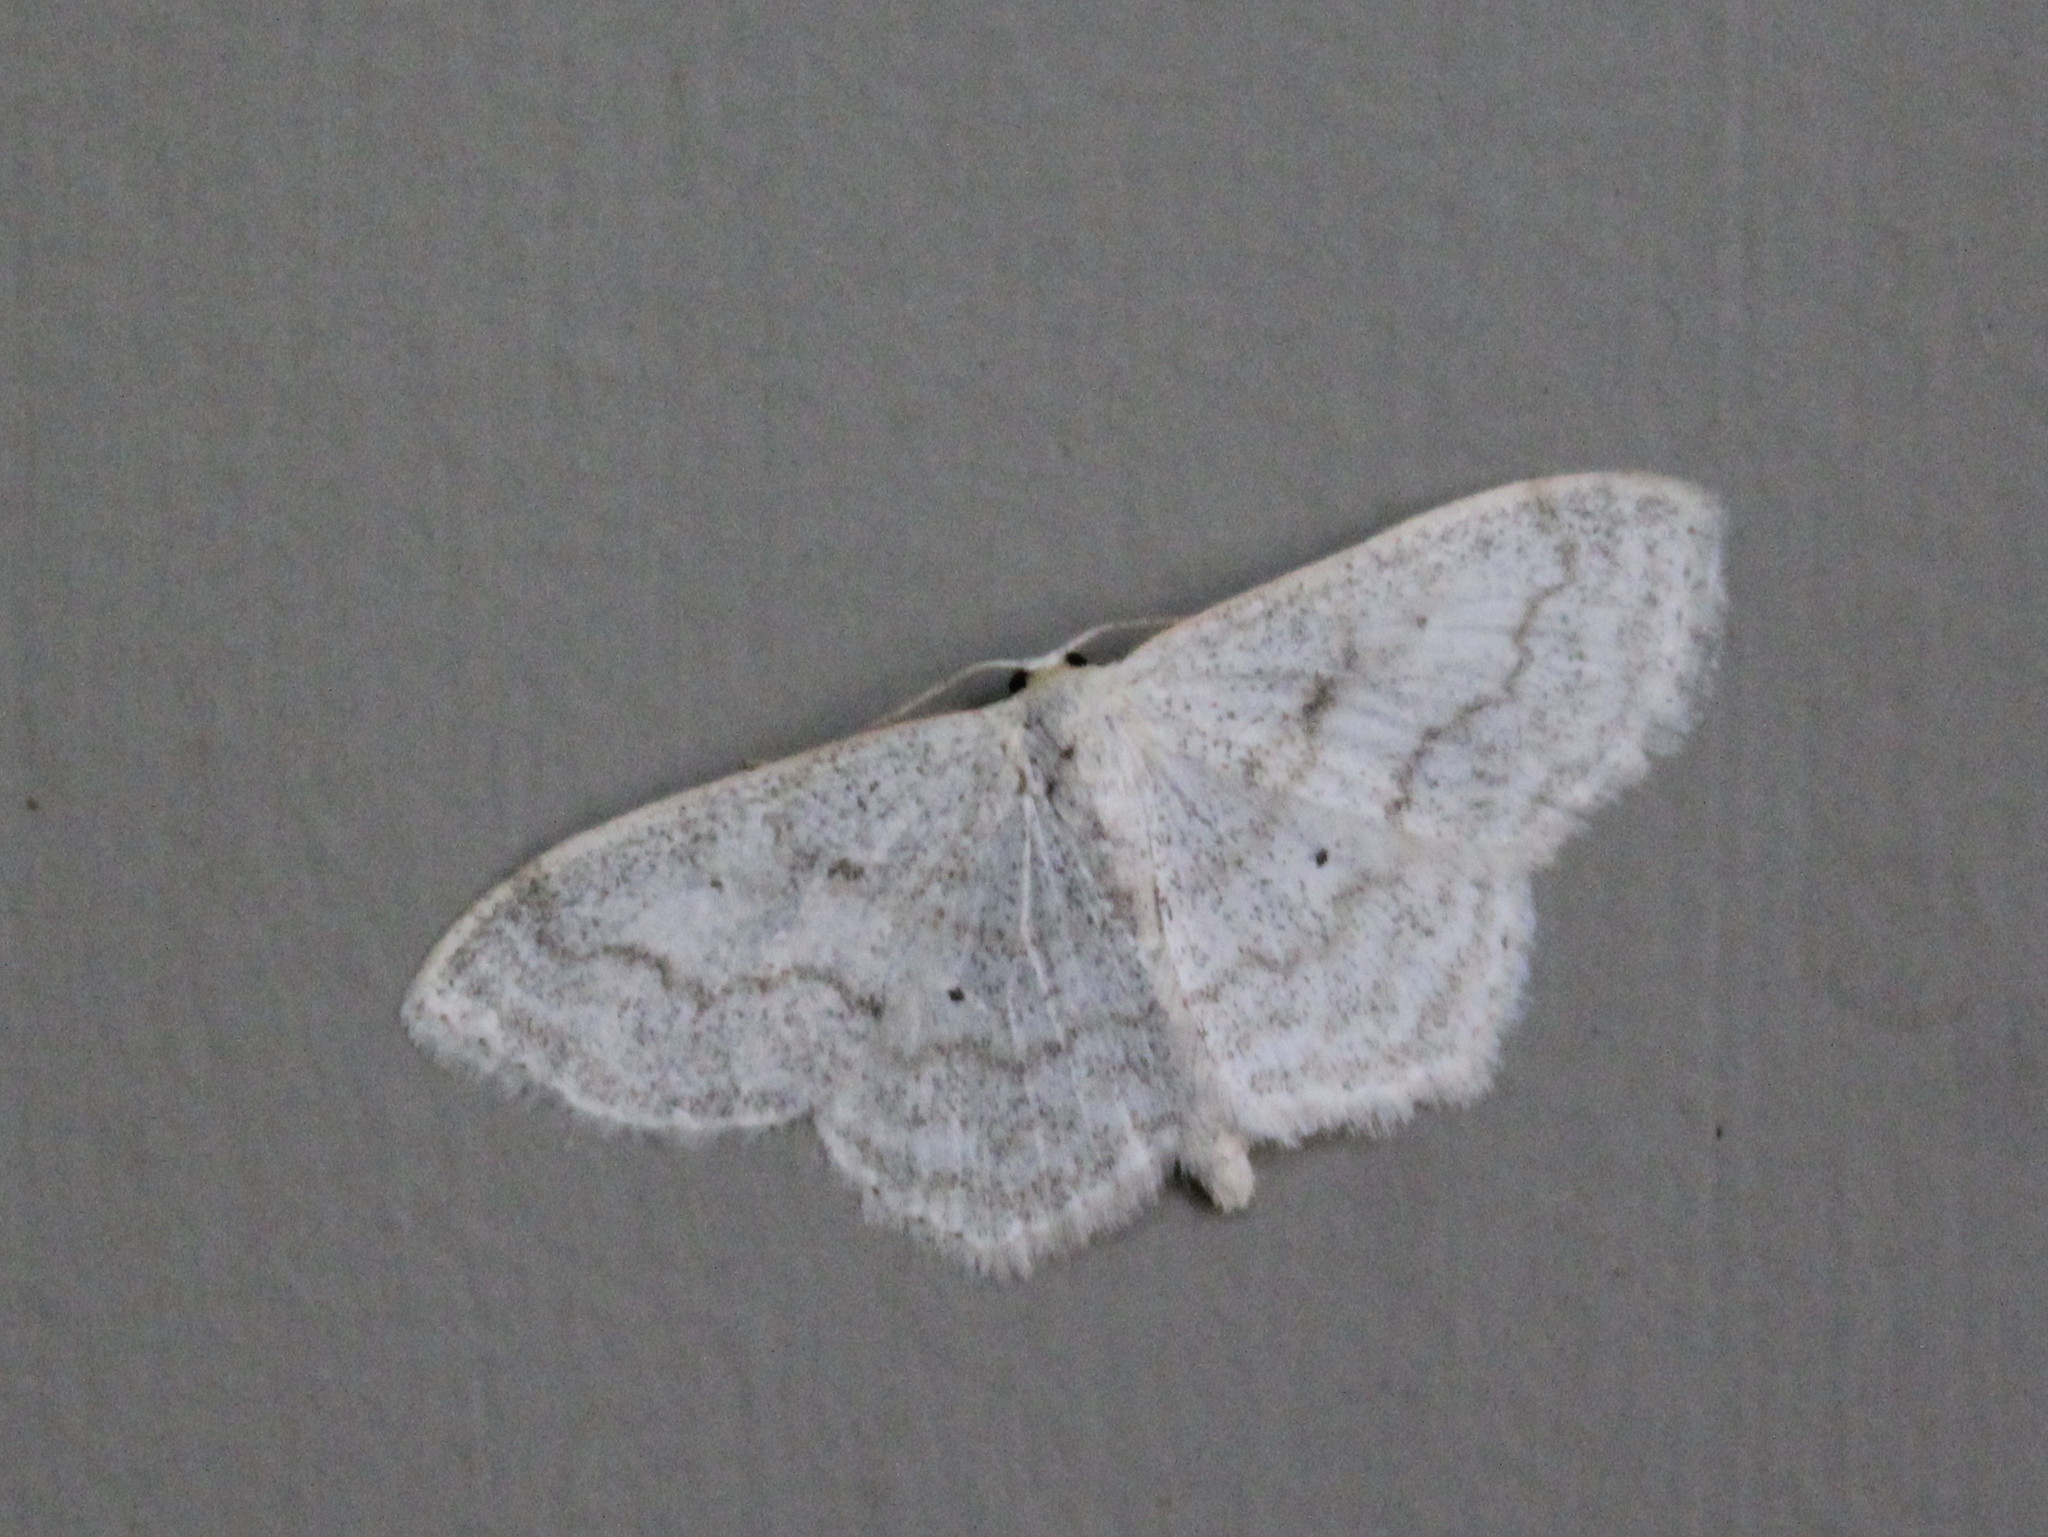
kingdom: Animalia
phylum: Arthropoda
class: Insecta
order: Lepidoptera
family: Geometridae
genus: Scopula
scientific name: Scopula limboundata
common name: Large lace border
